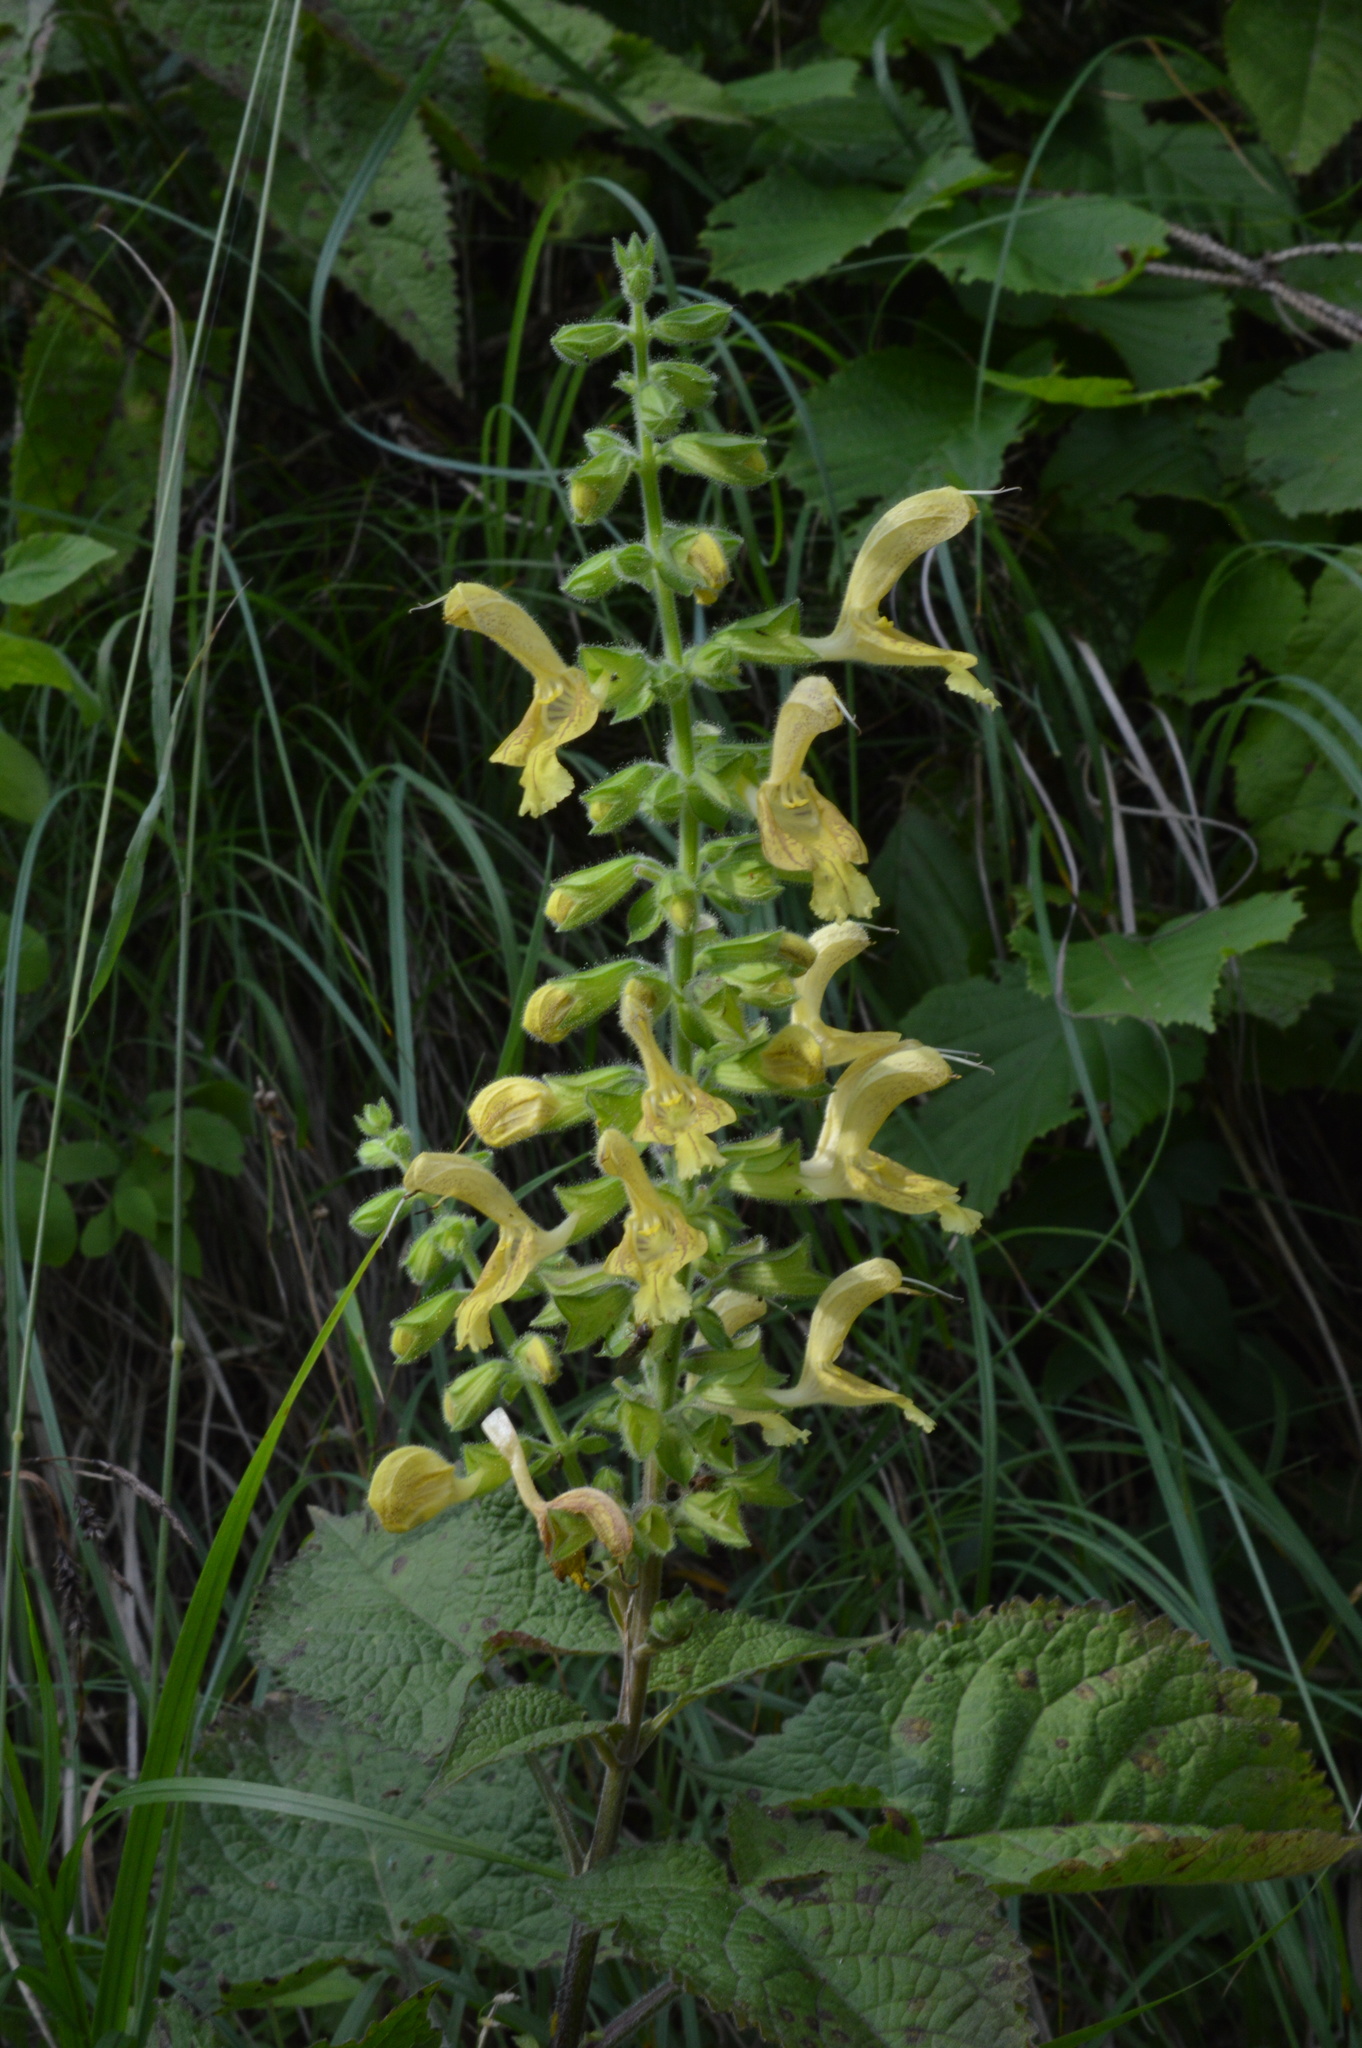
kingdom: Plantae
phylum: Tracheophyta
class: Magnoliopsida
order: Lamiales
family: Lamiaceae
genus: Salvia
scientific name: Salvia glutinosa
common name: Sticky clary
